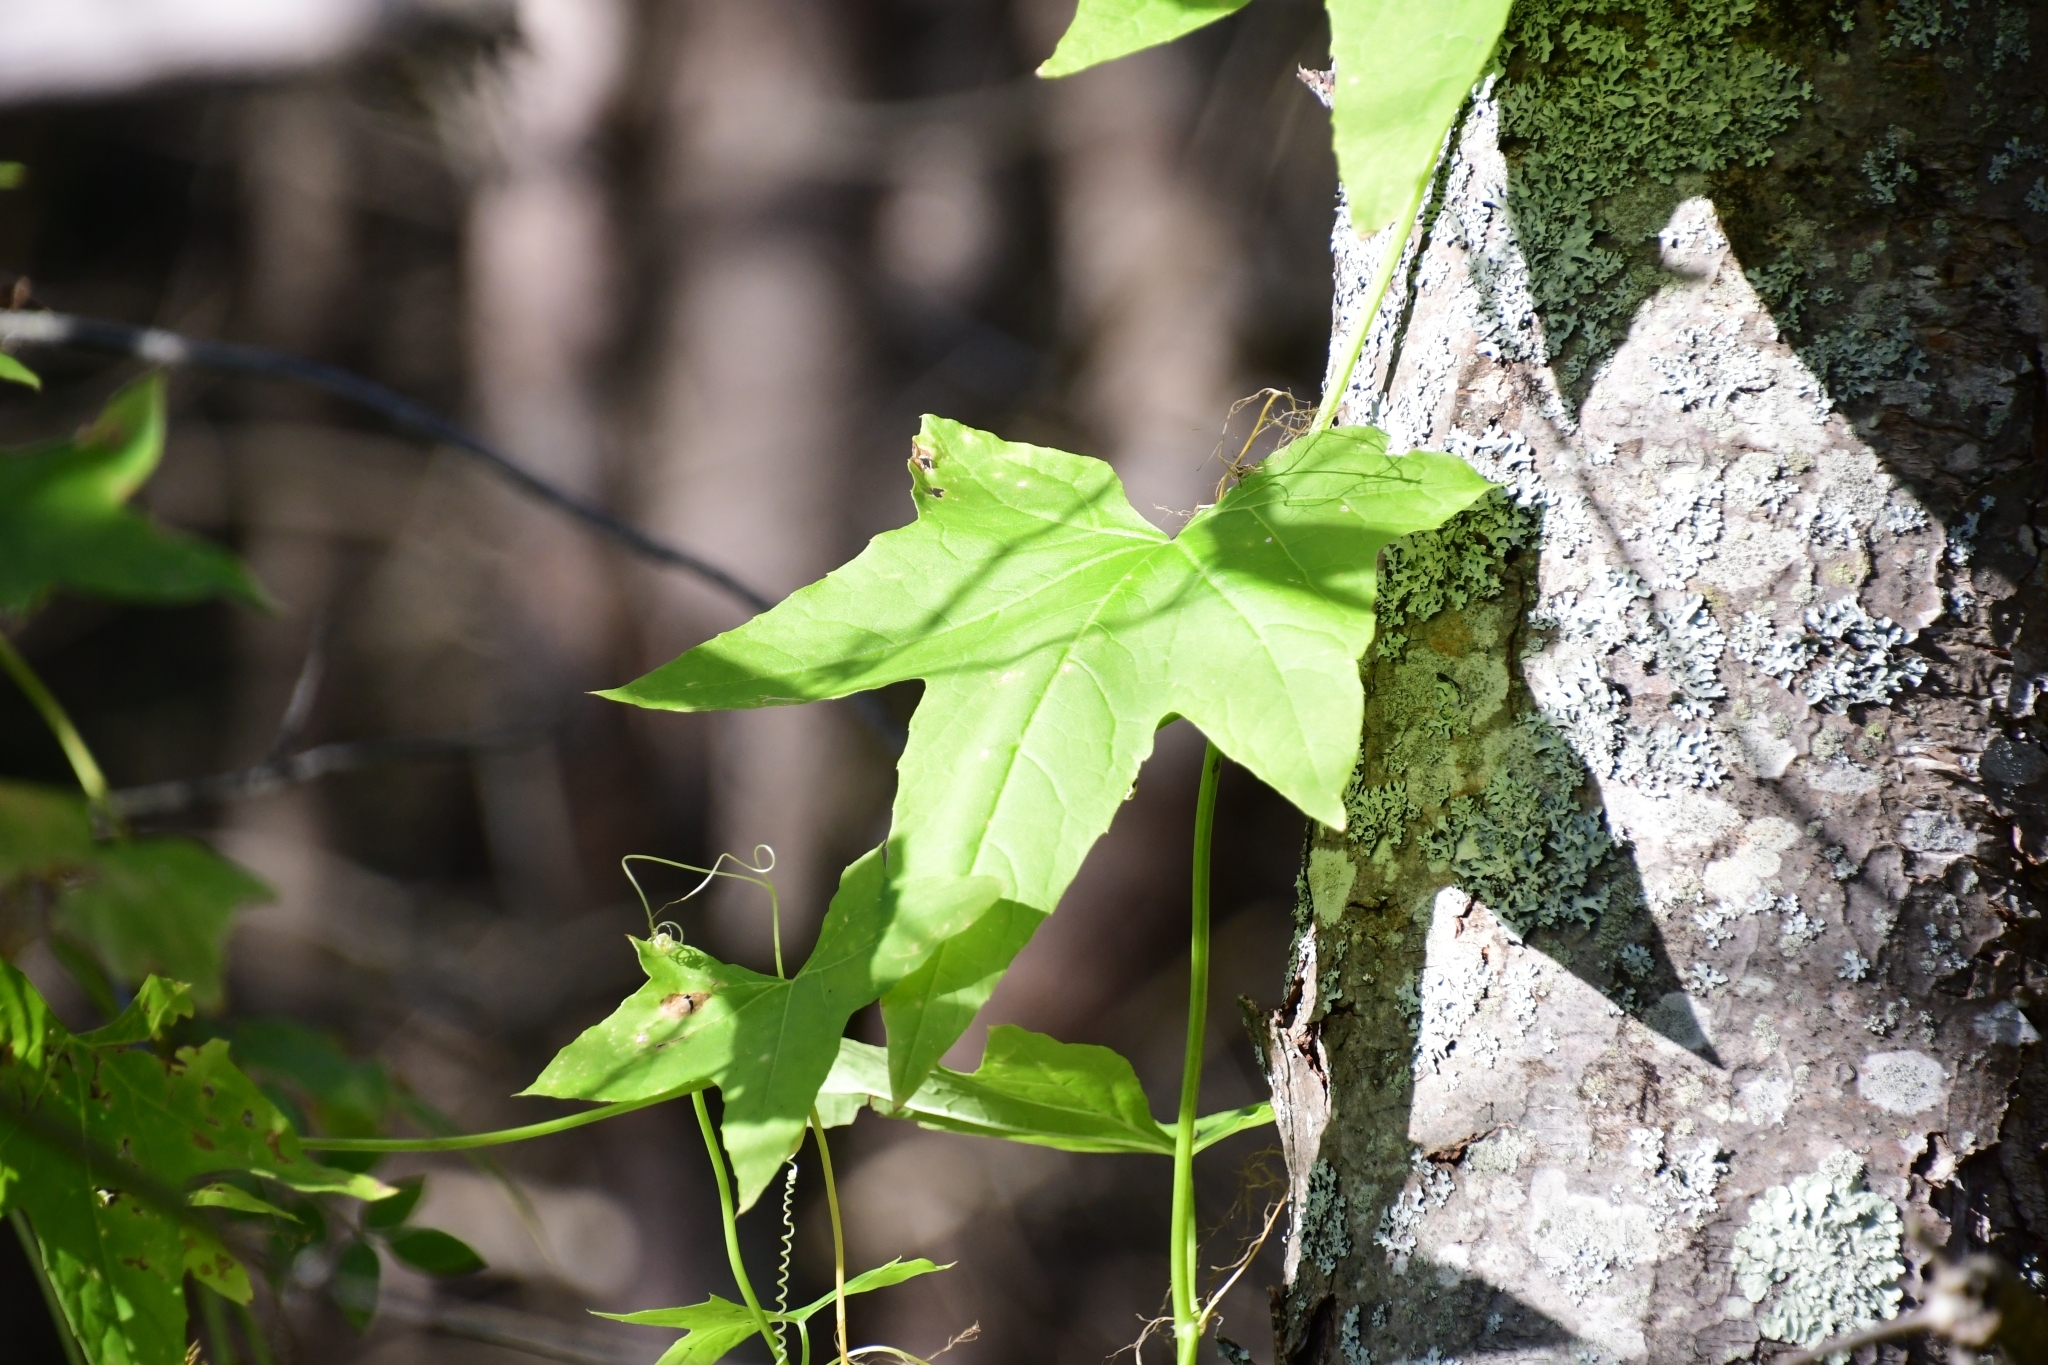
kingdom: Plantae
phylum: Tracheophyta
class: Magnoliopsida
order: Cucurbitales
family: Cucurbitaceae
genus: Echinocystis
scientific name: Echinocystis lobata
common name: Wild cucumber
